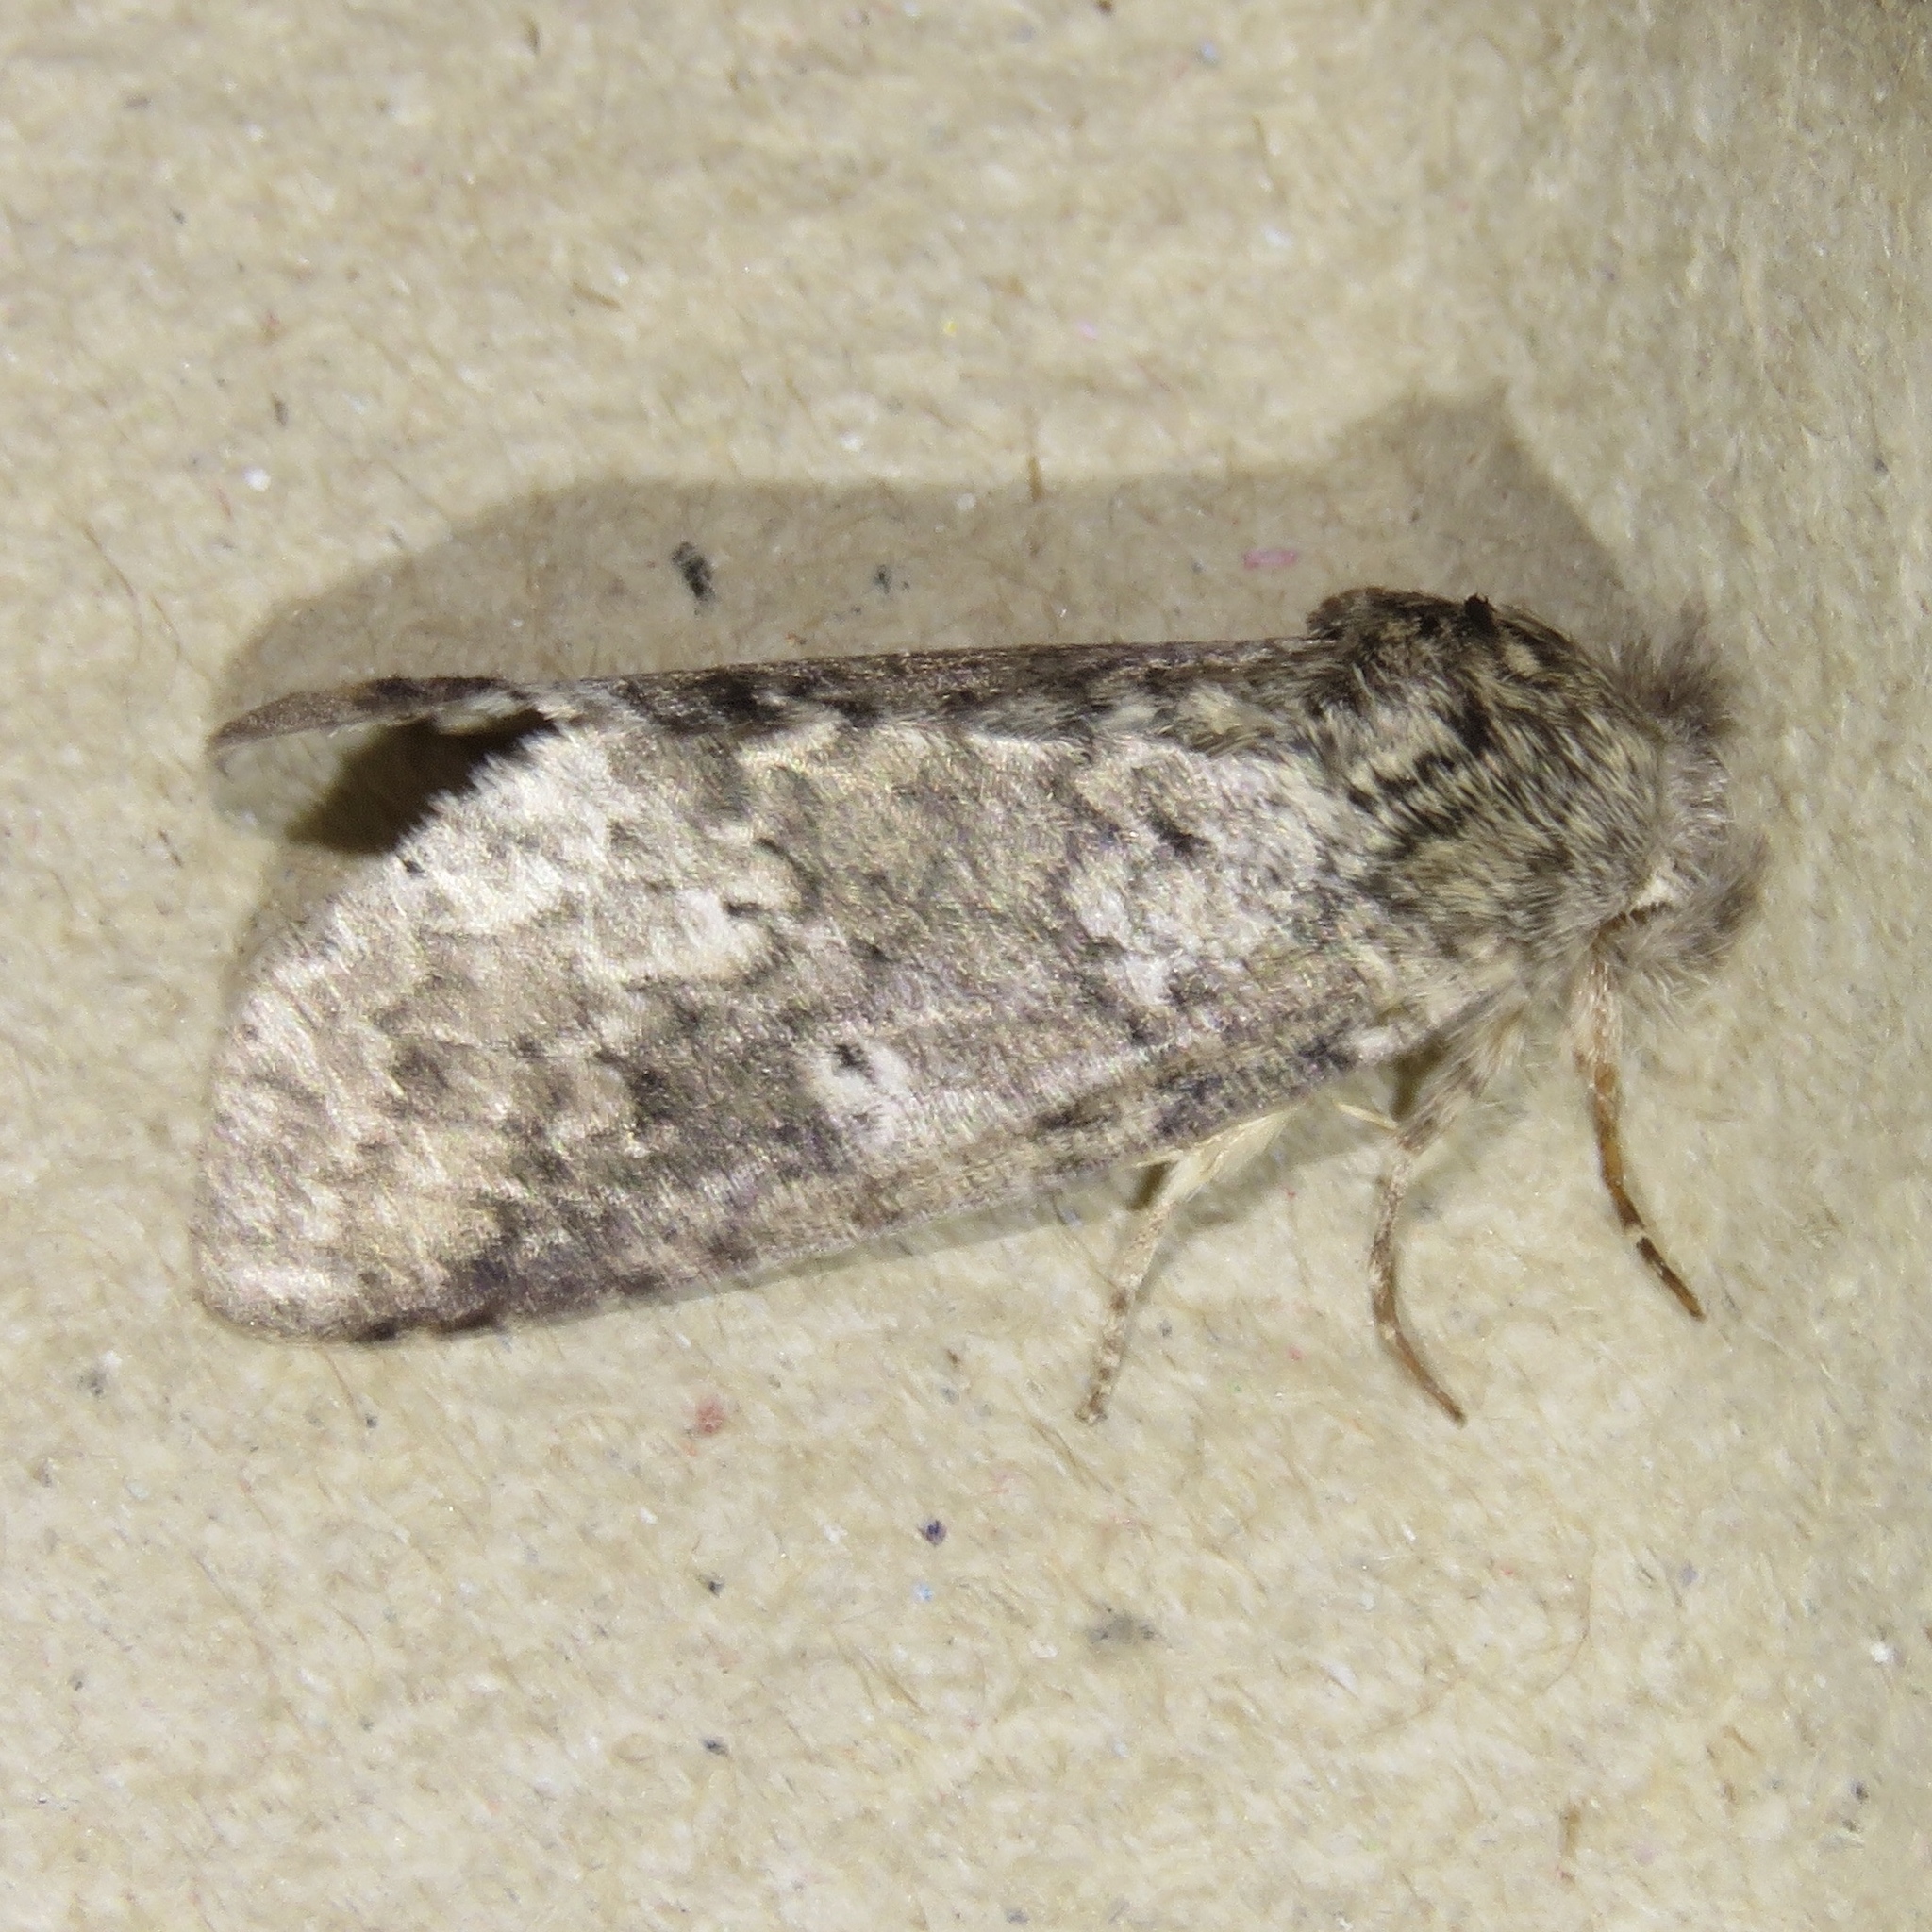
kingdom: Animalia
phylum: Arthropoda
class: Insecta
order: Lepidoptera
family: Notodontidae
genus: Lochmaeus
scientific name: Lochmaeus manteo
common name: Variable oakleaf caterpillar moth
